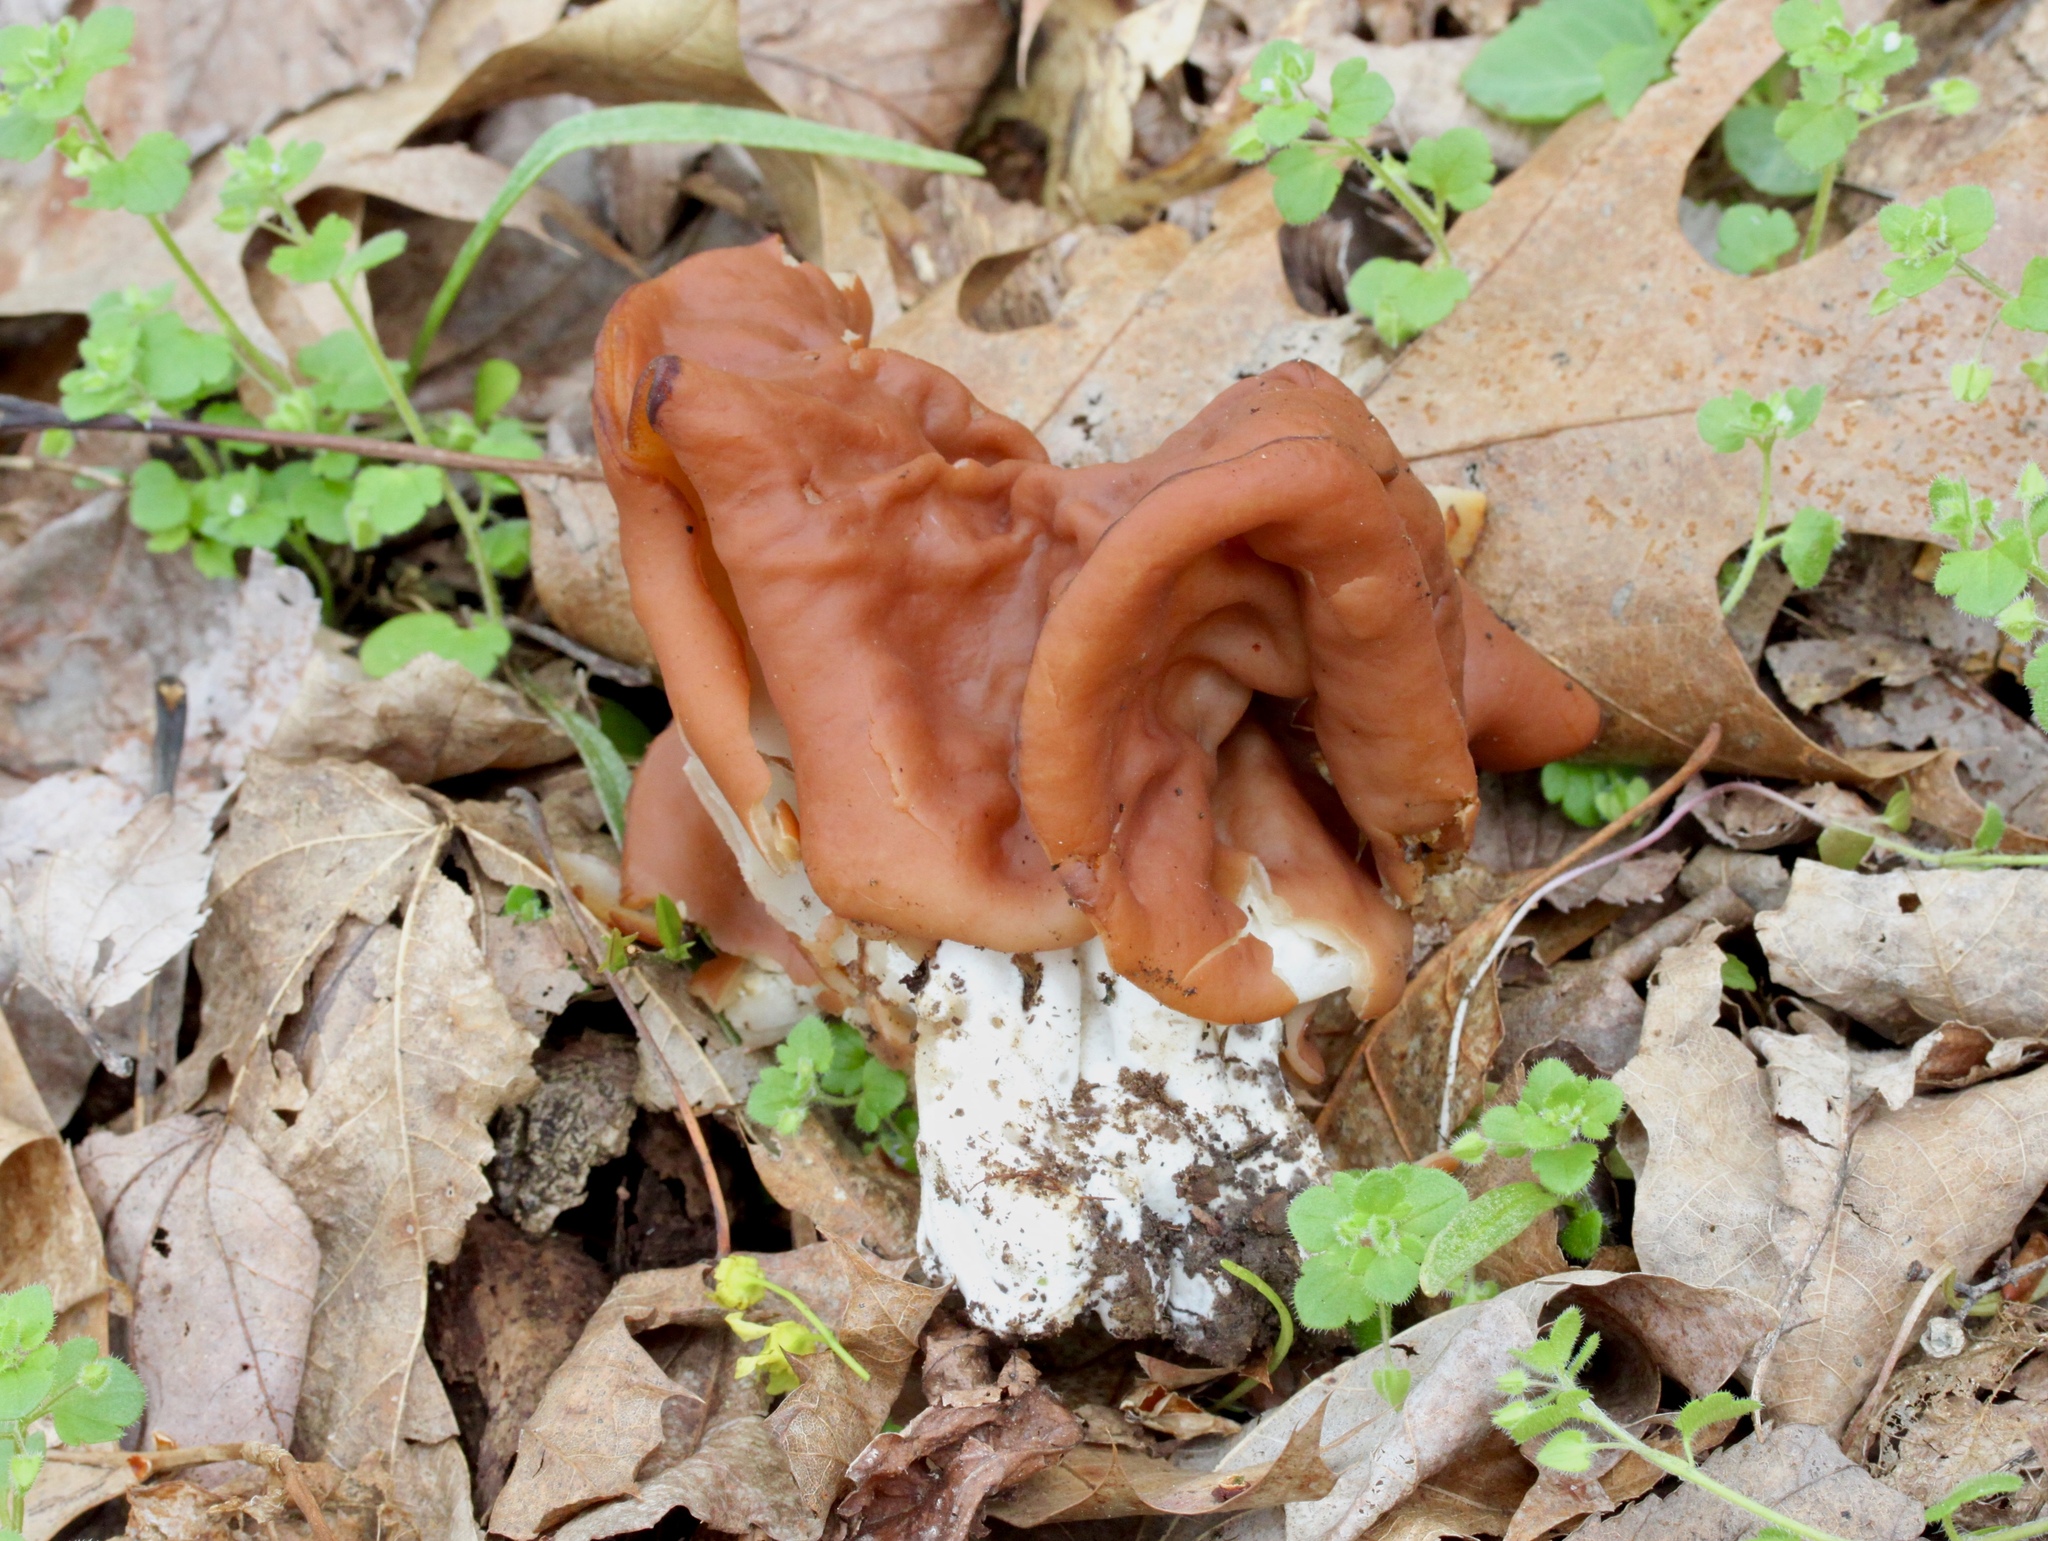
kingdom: Fungi
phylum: Ascomycota
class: Pezizomycetes
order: Pezizales
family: Discinaceae
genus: Gyromitra
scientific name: Gyromitra korfii
